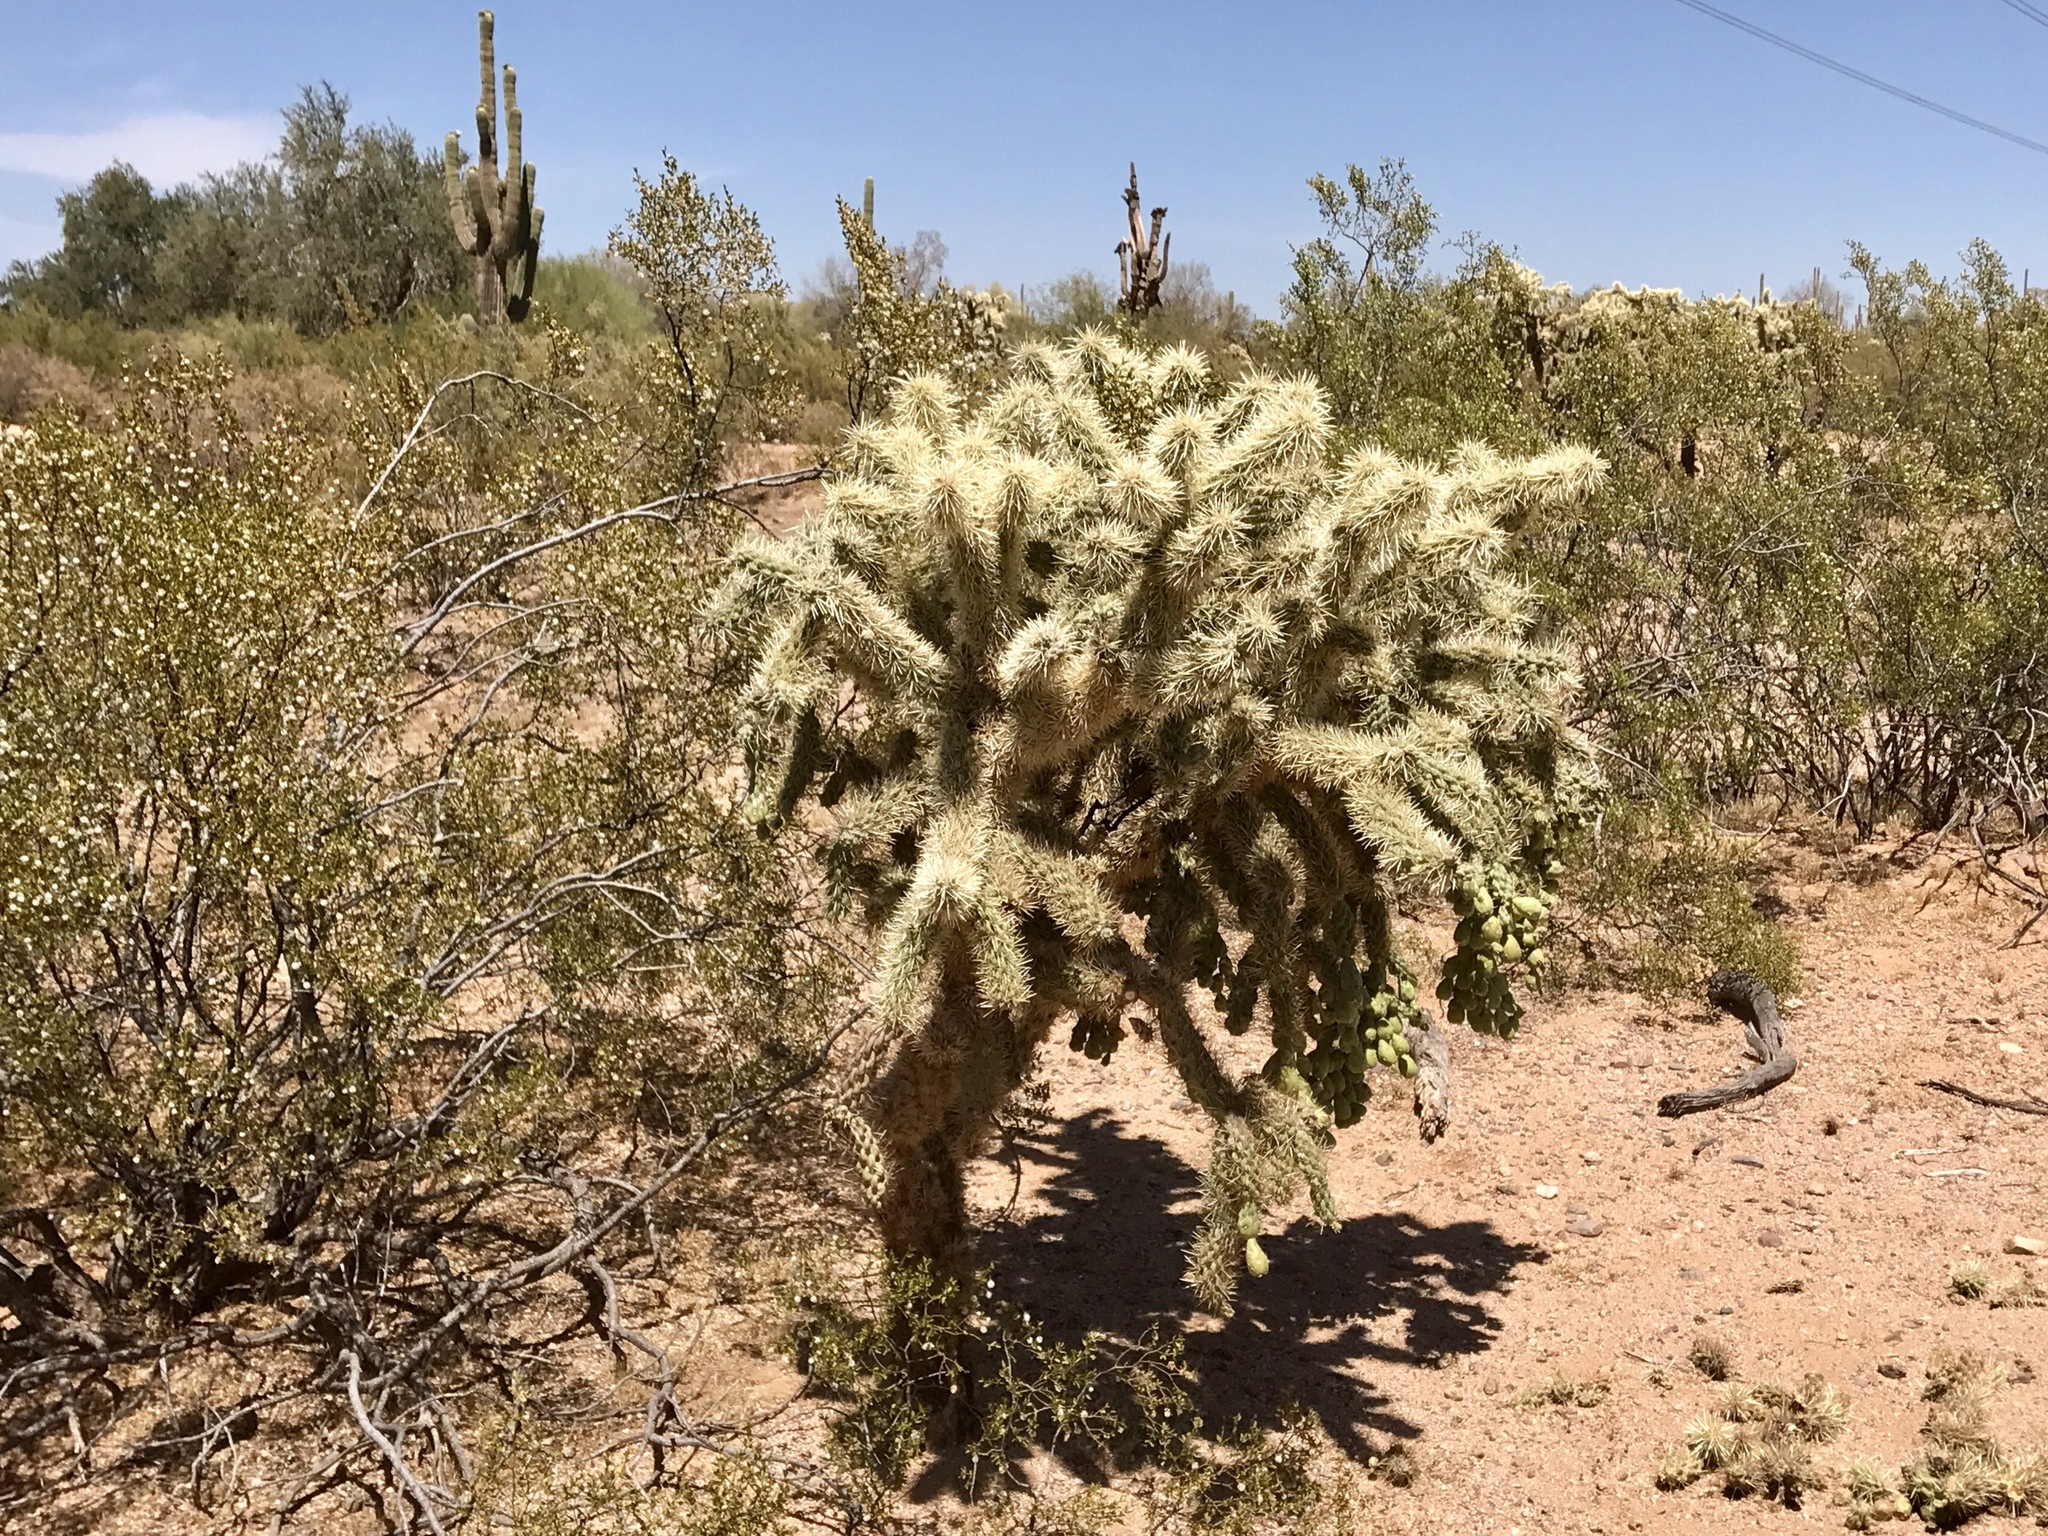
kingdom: Plantae
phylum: Tracheophyta
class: Magnoliopsida
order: Caryophyllales
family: Cactaceae
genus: Cylindropuntia
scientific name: Cylindropuntia fulgida
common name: Jumping cholla
